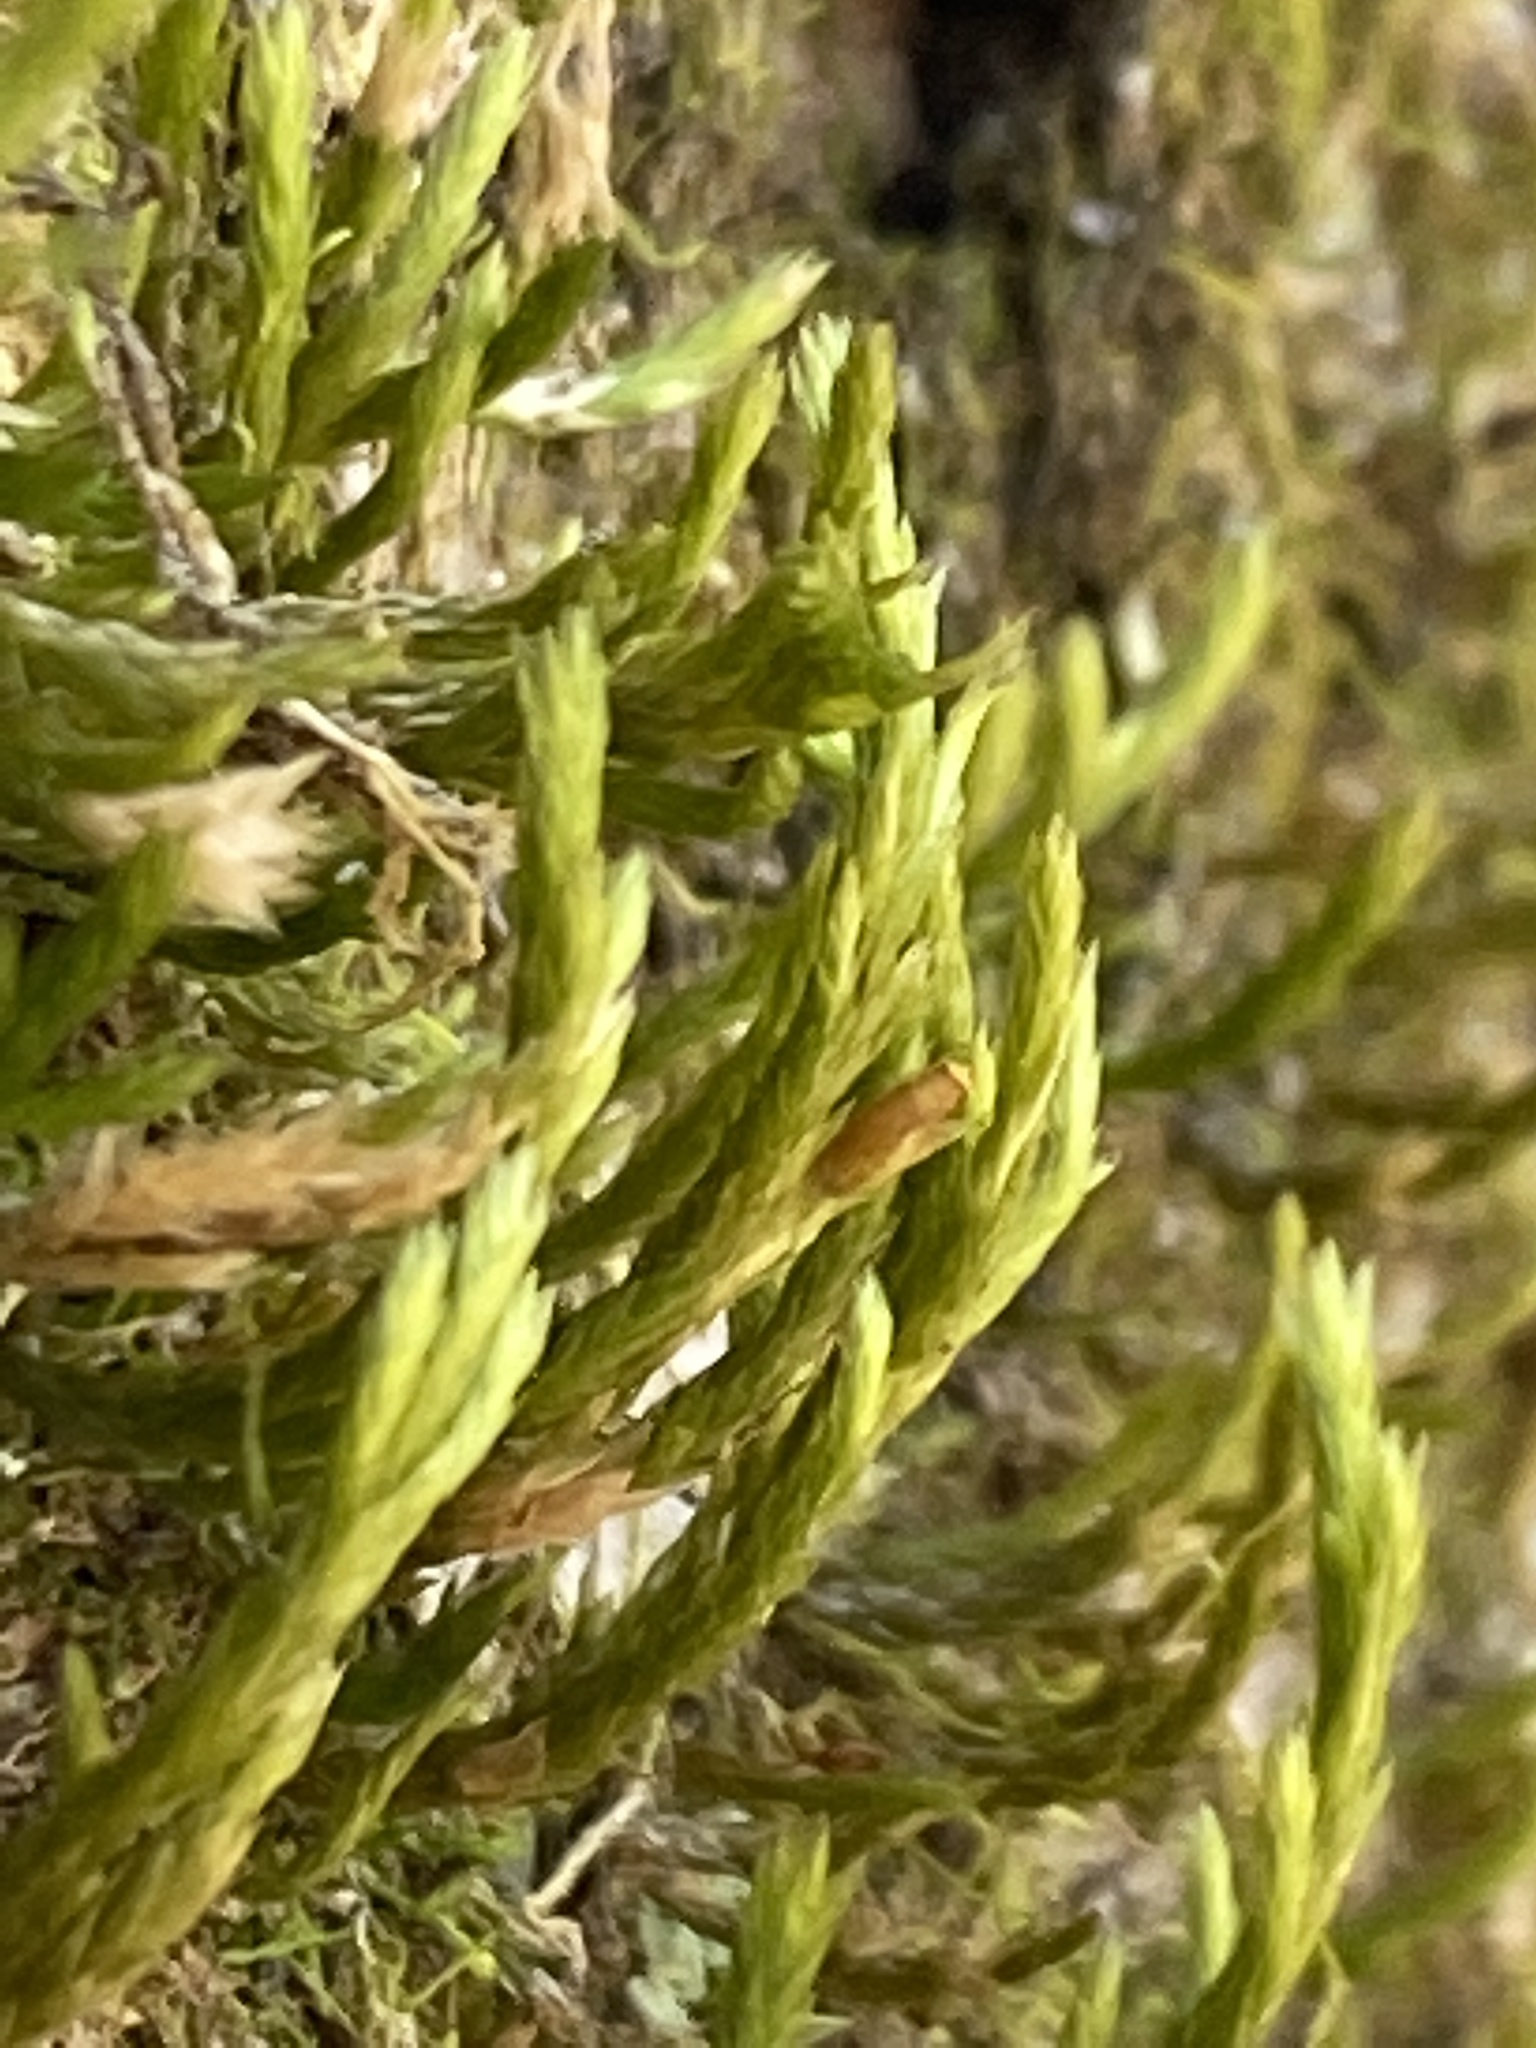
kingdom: Plantae
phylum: Bryophyta
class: Bryopsida
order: Hypnales
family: Neckeraceae
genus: Forsstroemia
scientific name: Forsstroemia trichomitria
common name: Fan moss
